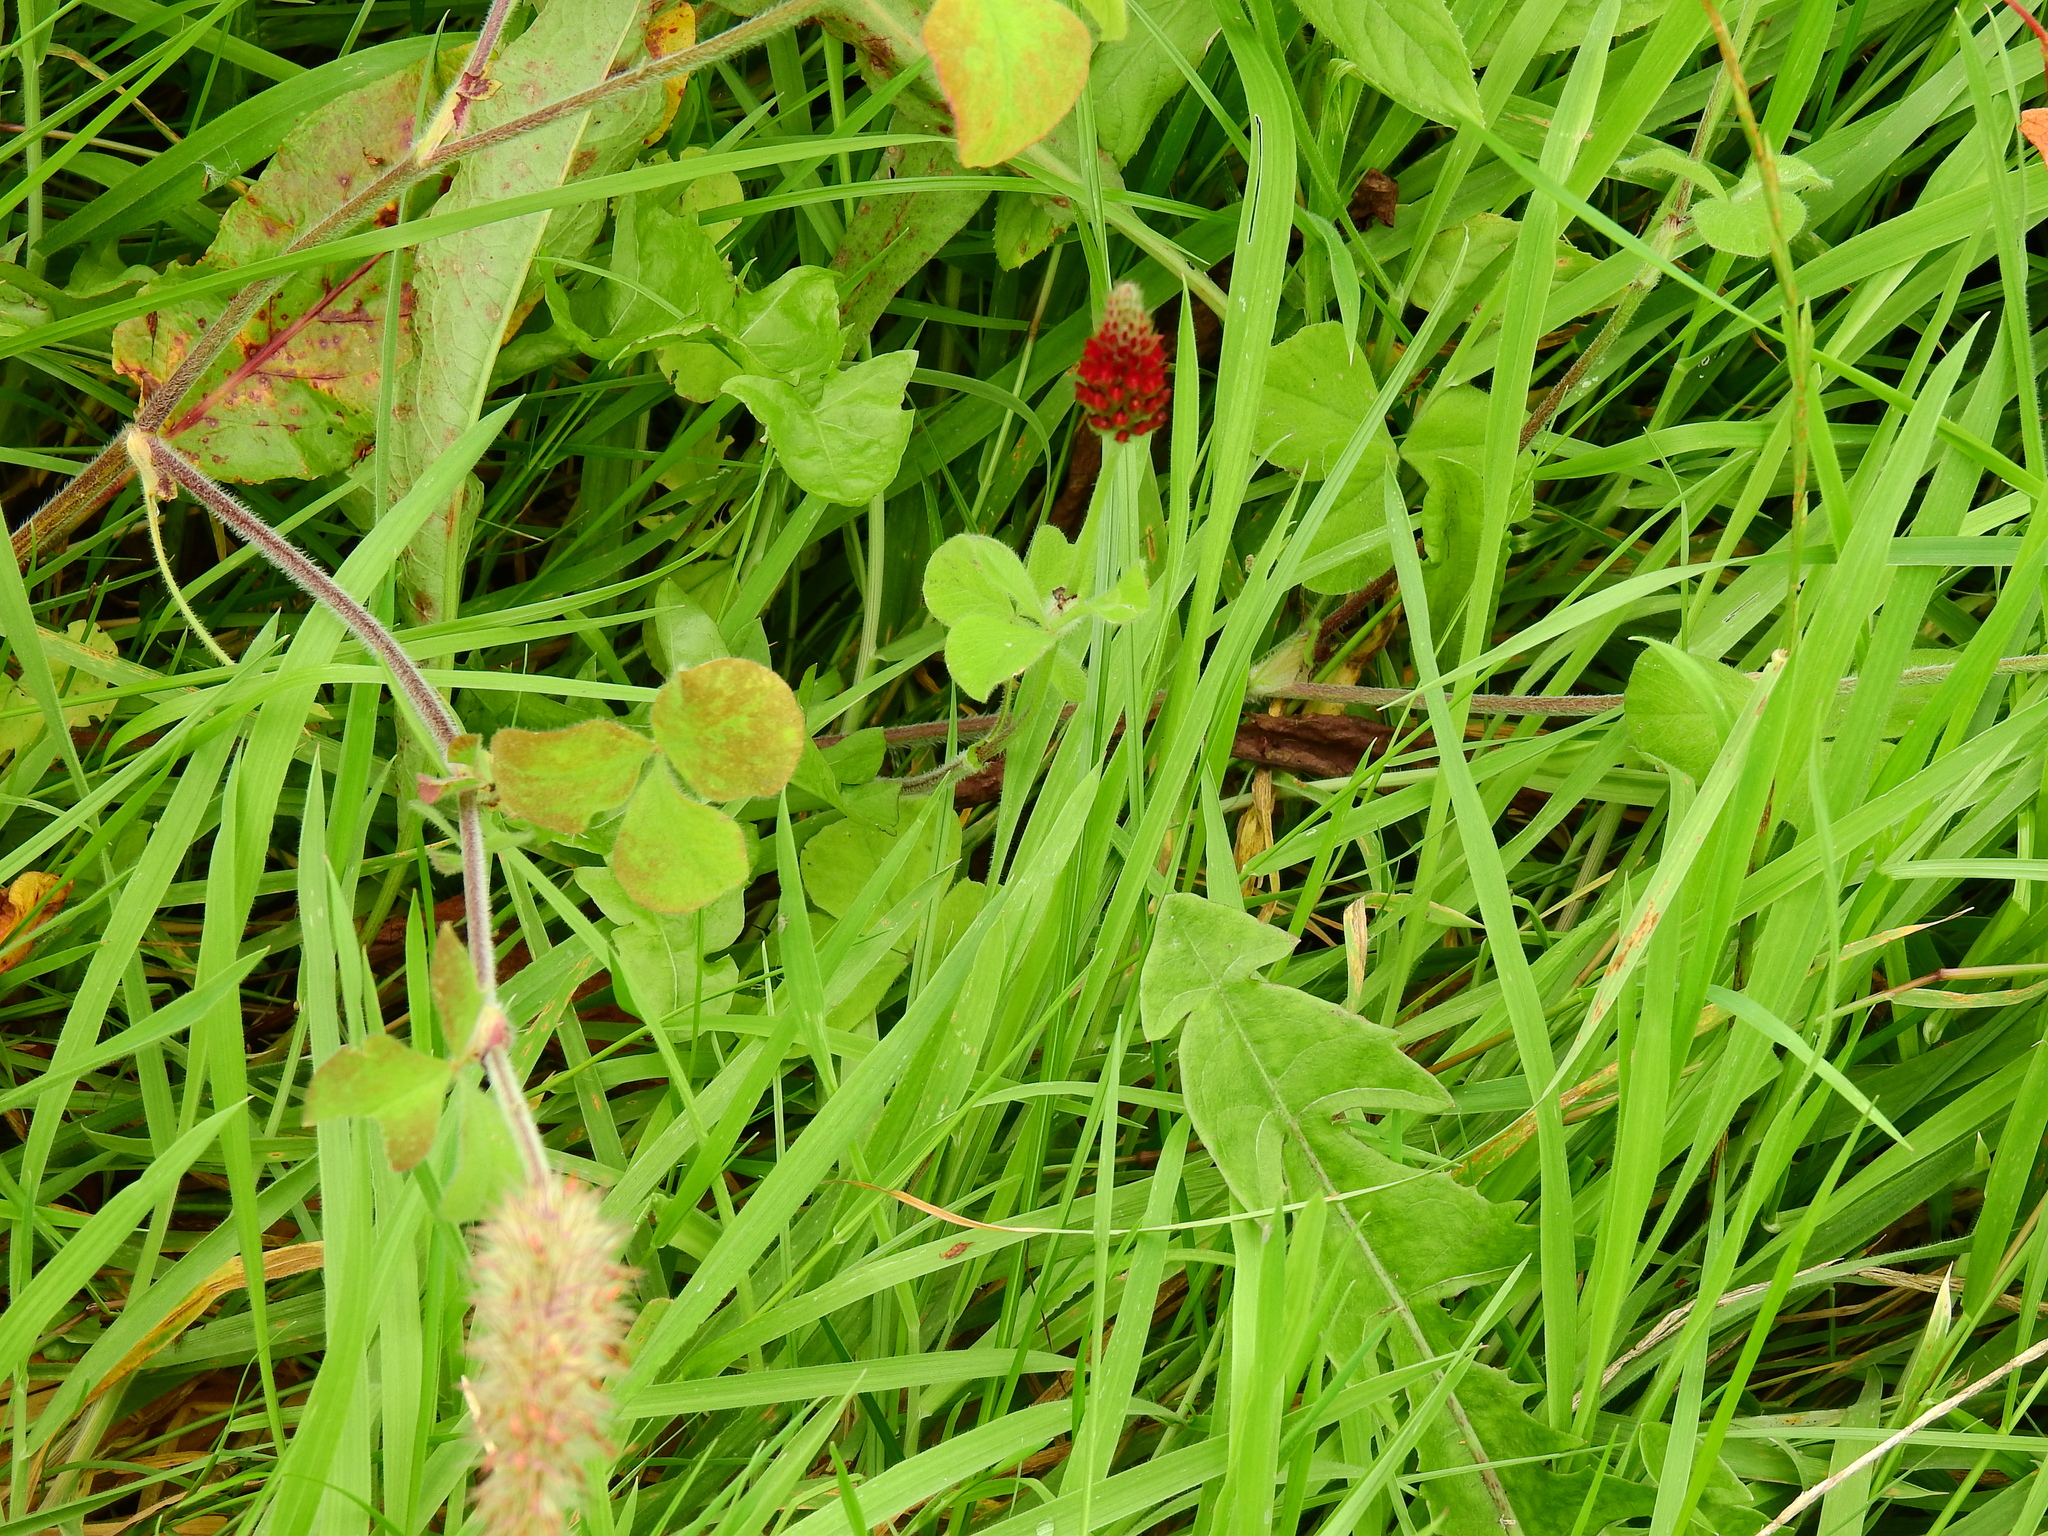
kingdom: Plantae
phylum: Tracheophyta
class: Magnoliopsida
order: Fabales
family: Fabaceae
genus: Trifolium
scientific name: Trifolium incarnatum
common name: Crimson clover
